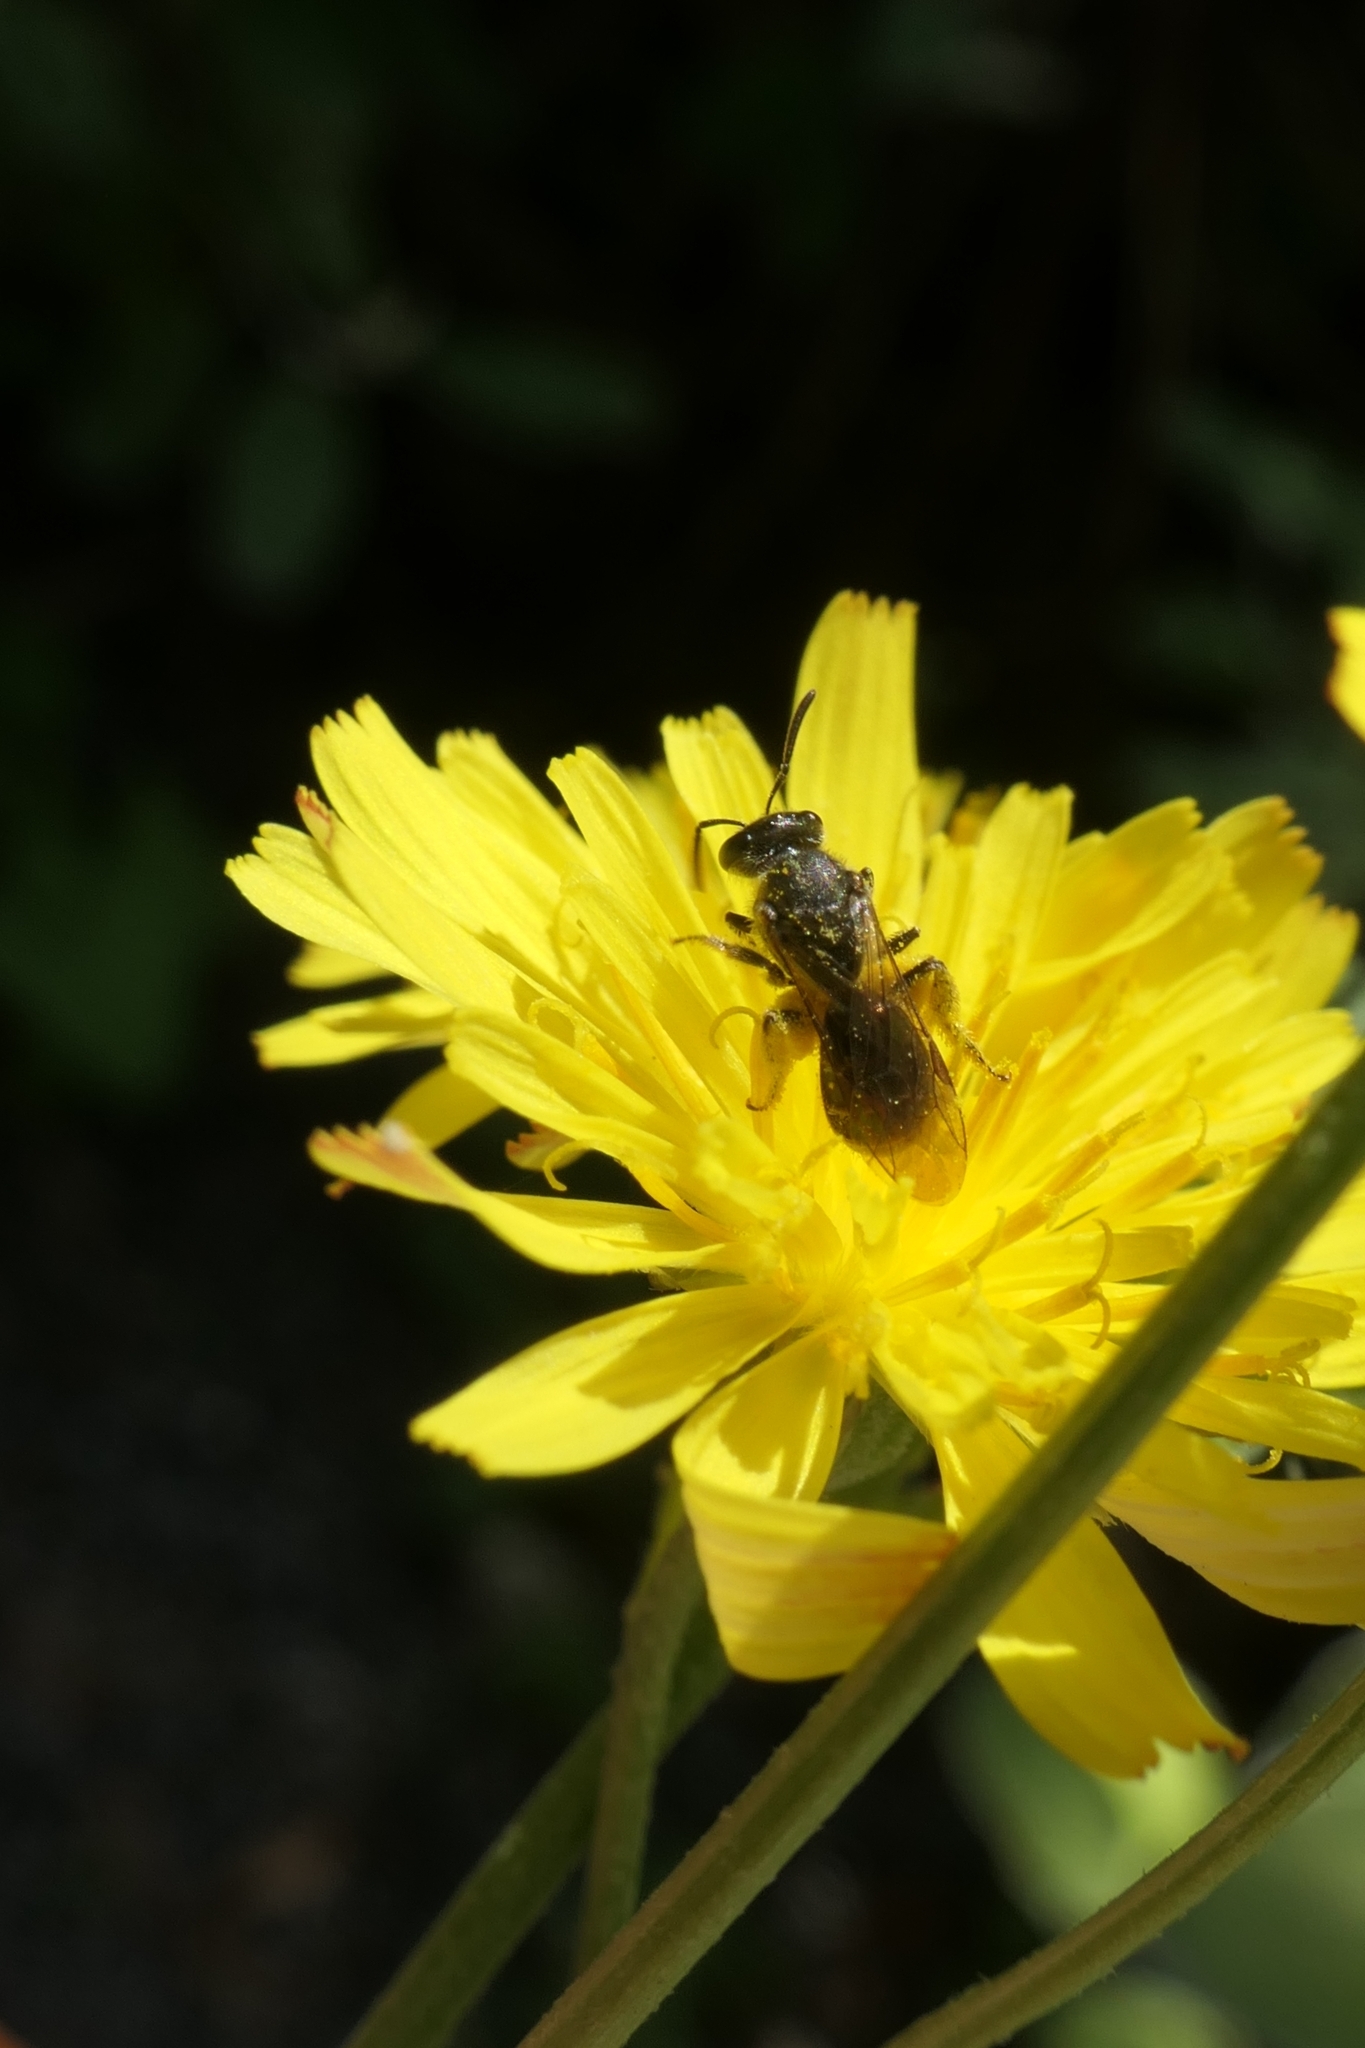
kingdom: Animalia
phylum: Arthropoda
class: Insecta
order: Hymenoptera
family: Halictidae
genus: Lasioglossum
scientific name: Lasioglossum sordidum
